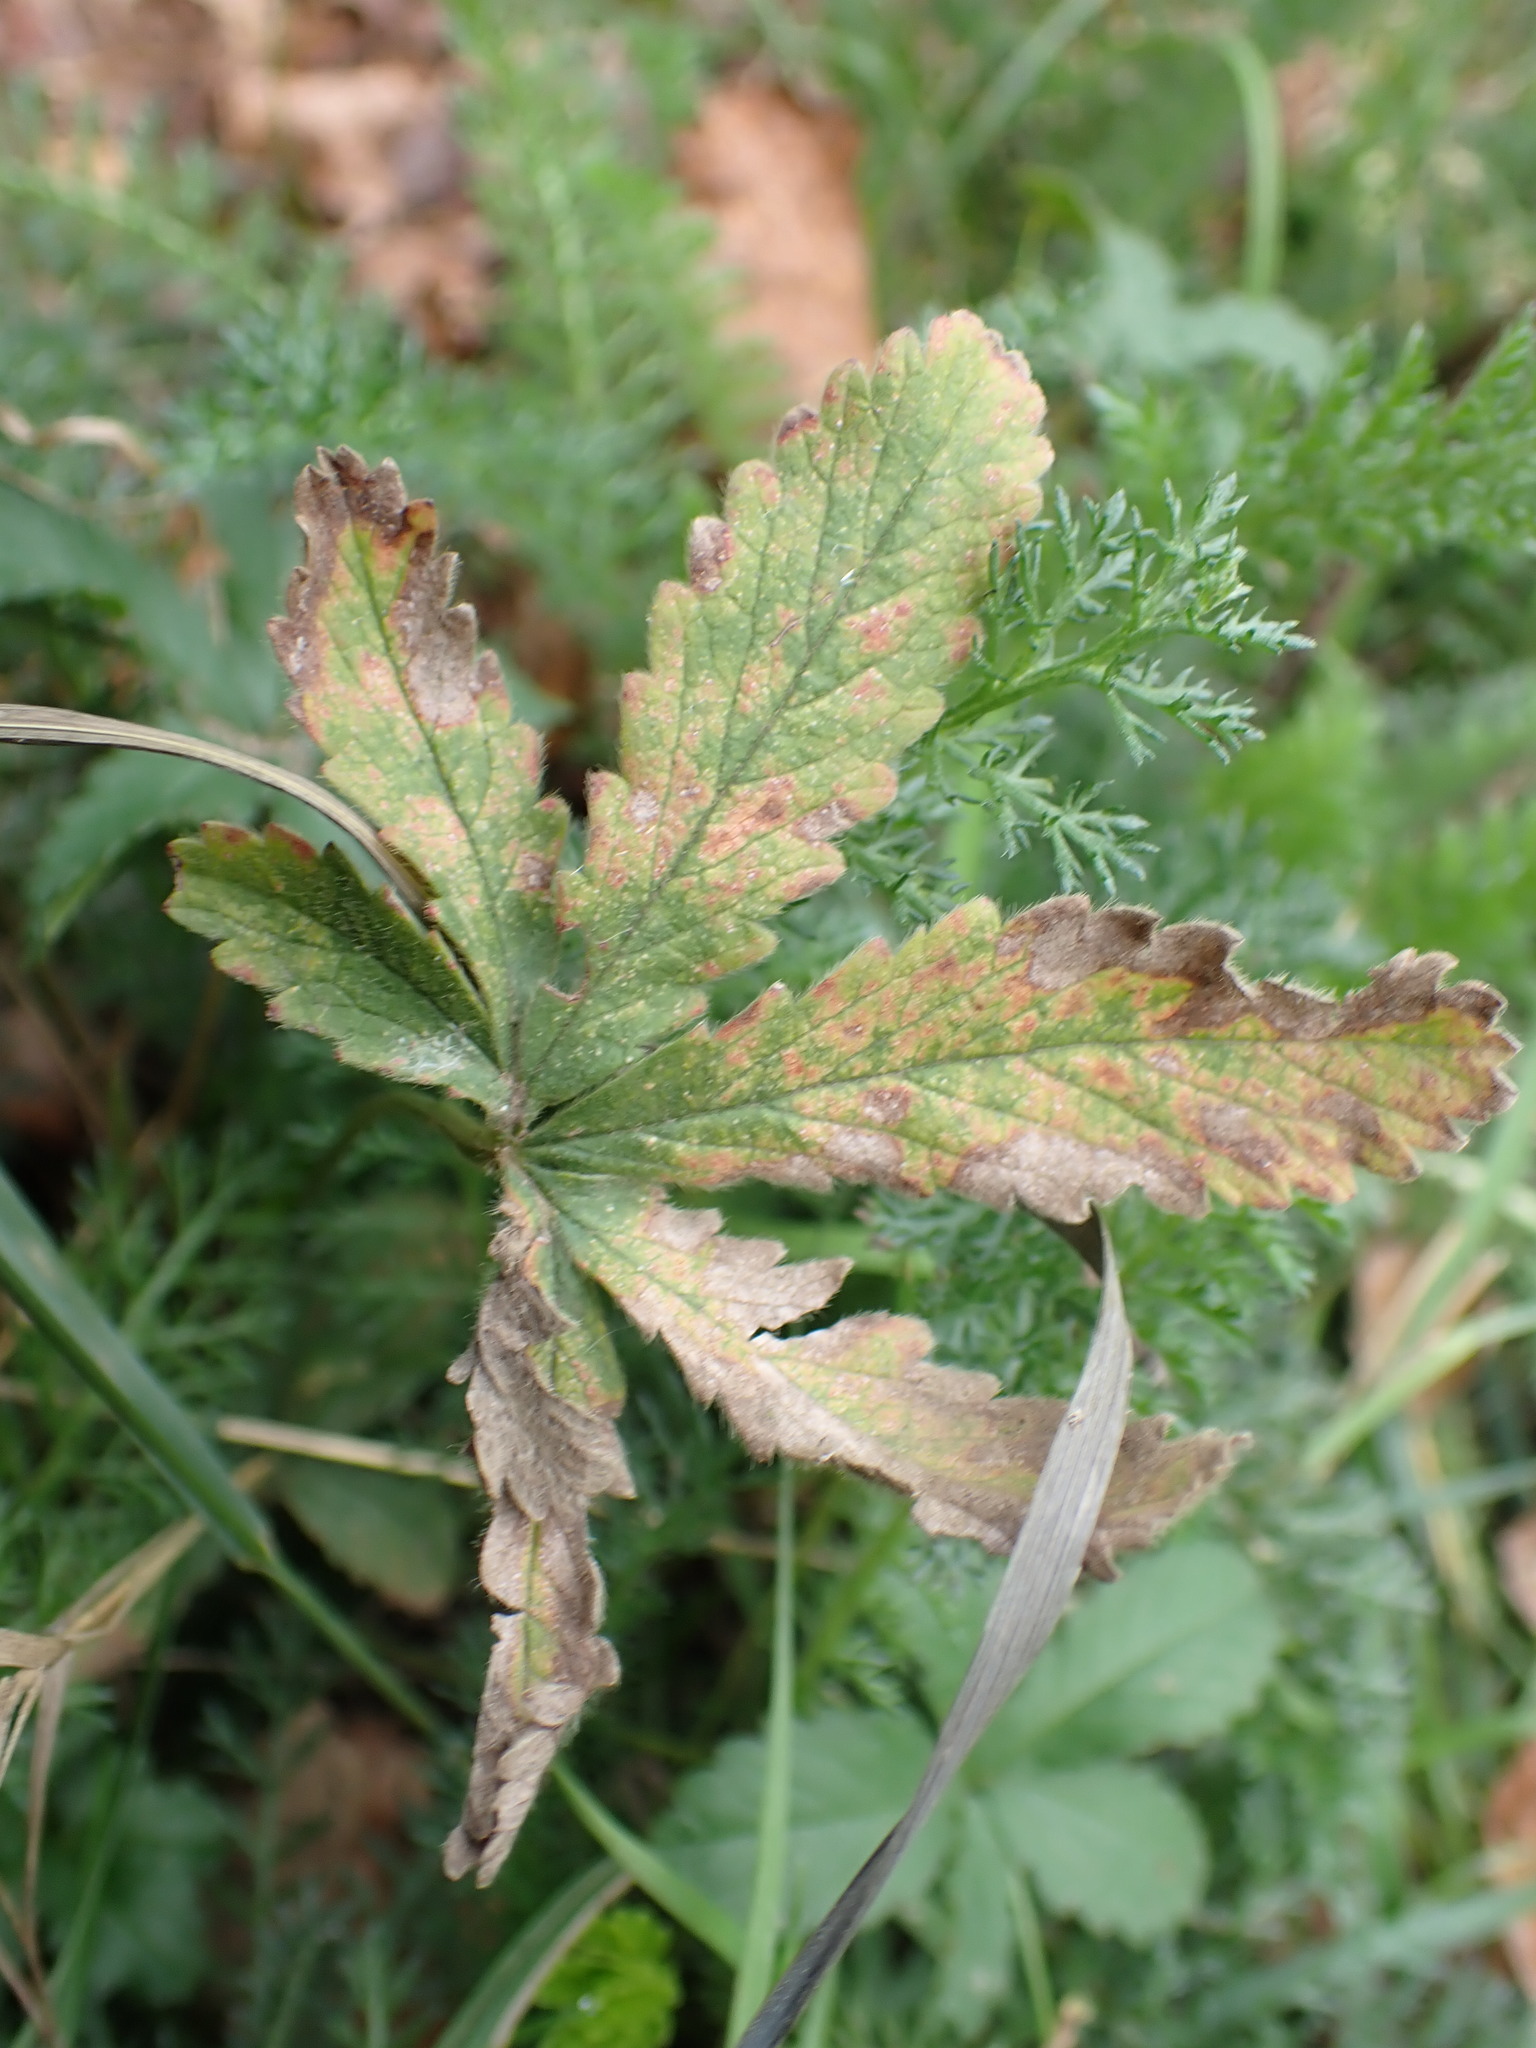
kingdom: Plantae
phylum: Tracheophyta
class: Magnoliopsida
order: Rosales
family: Rosaceae
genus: Potentilla
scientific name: Potentilla reptans
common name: Creeping cinquefoil
